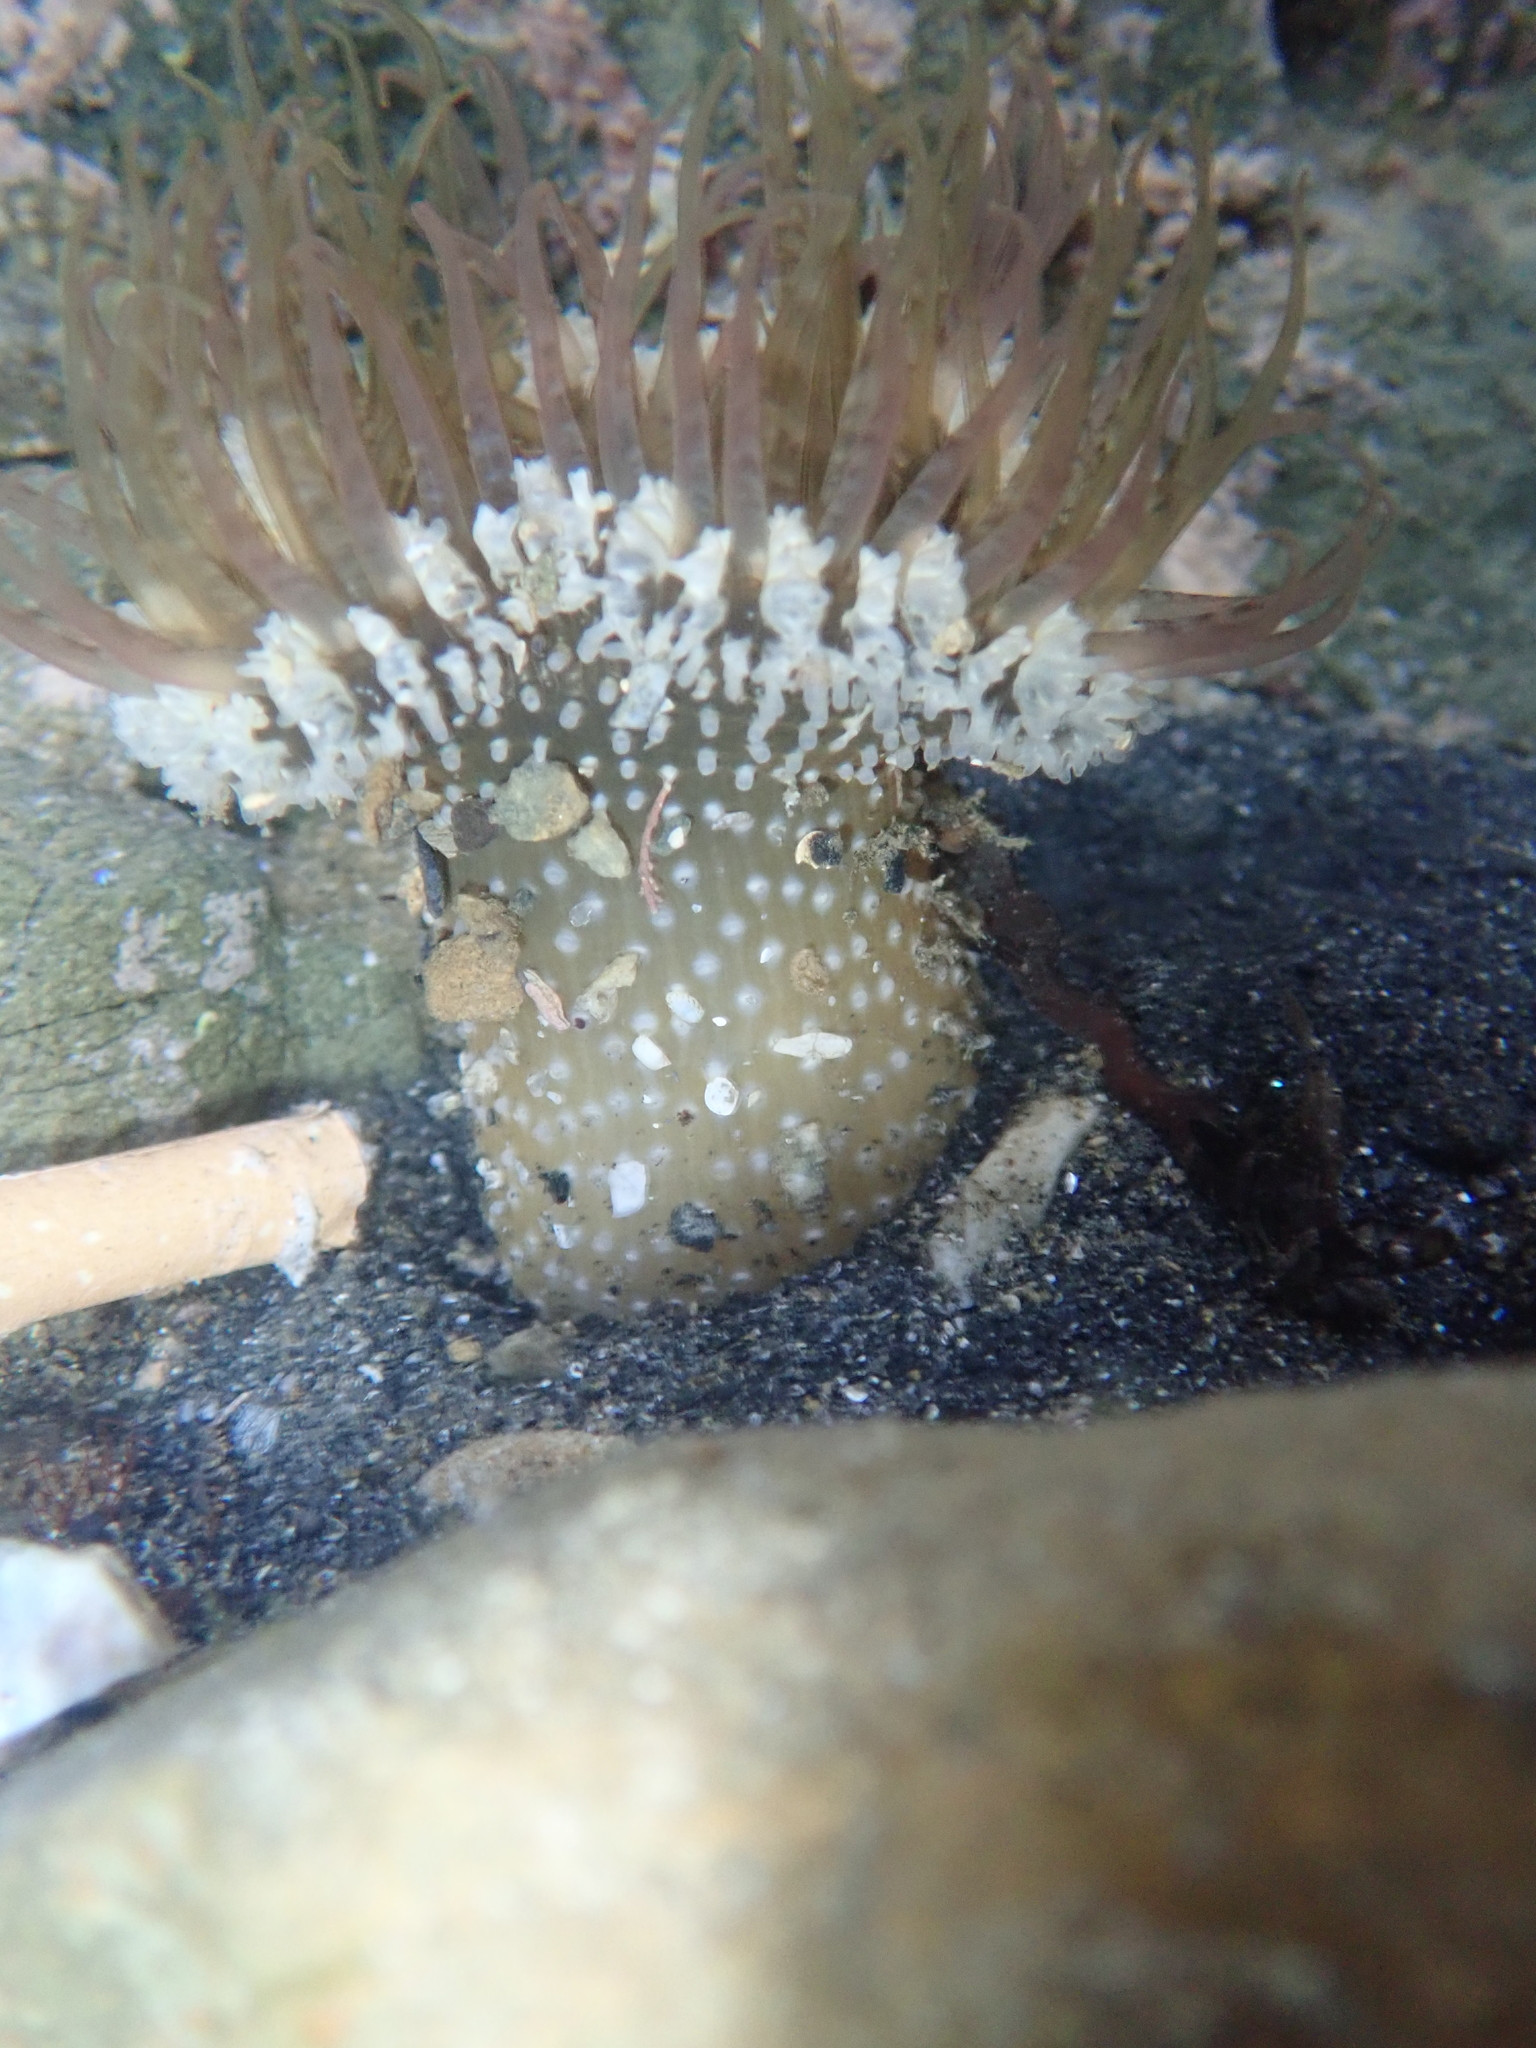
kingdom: Animalia
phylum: Cnidaria
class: Anthozoa
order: Actiniaria
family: Actiniidae
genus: Oulactis
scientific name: Oulactis muscosa
